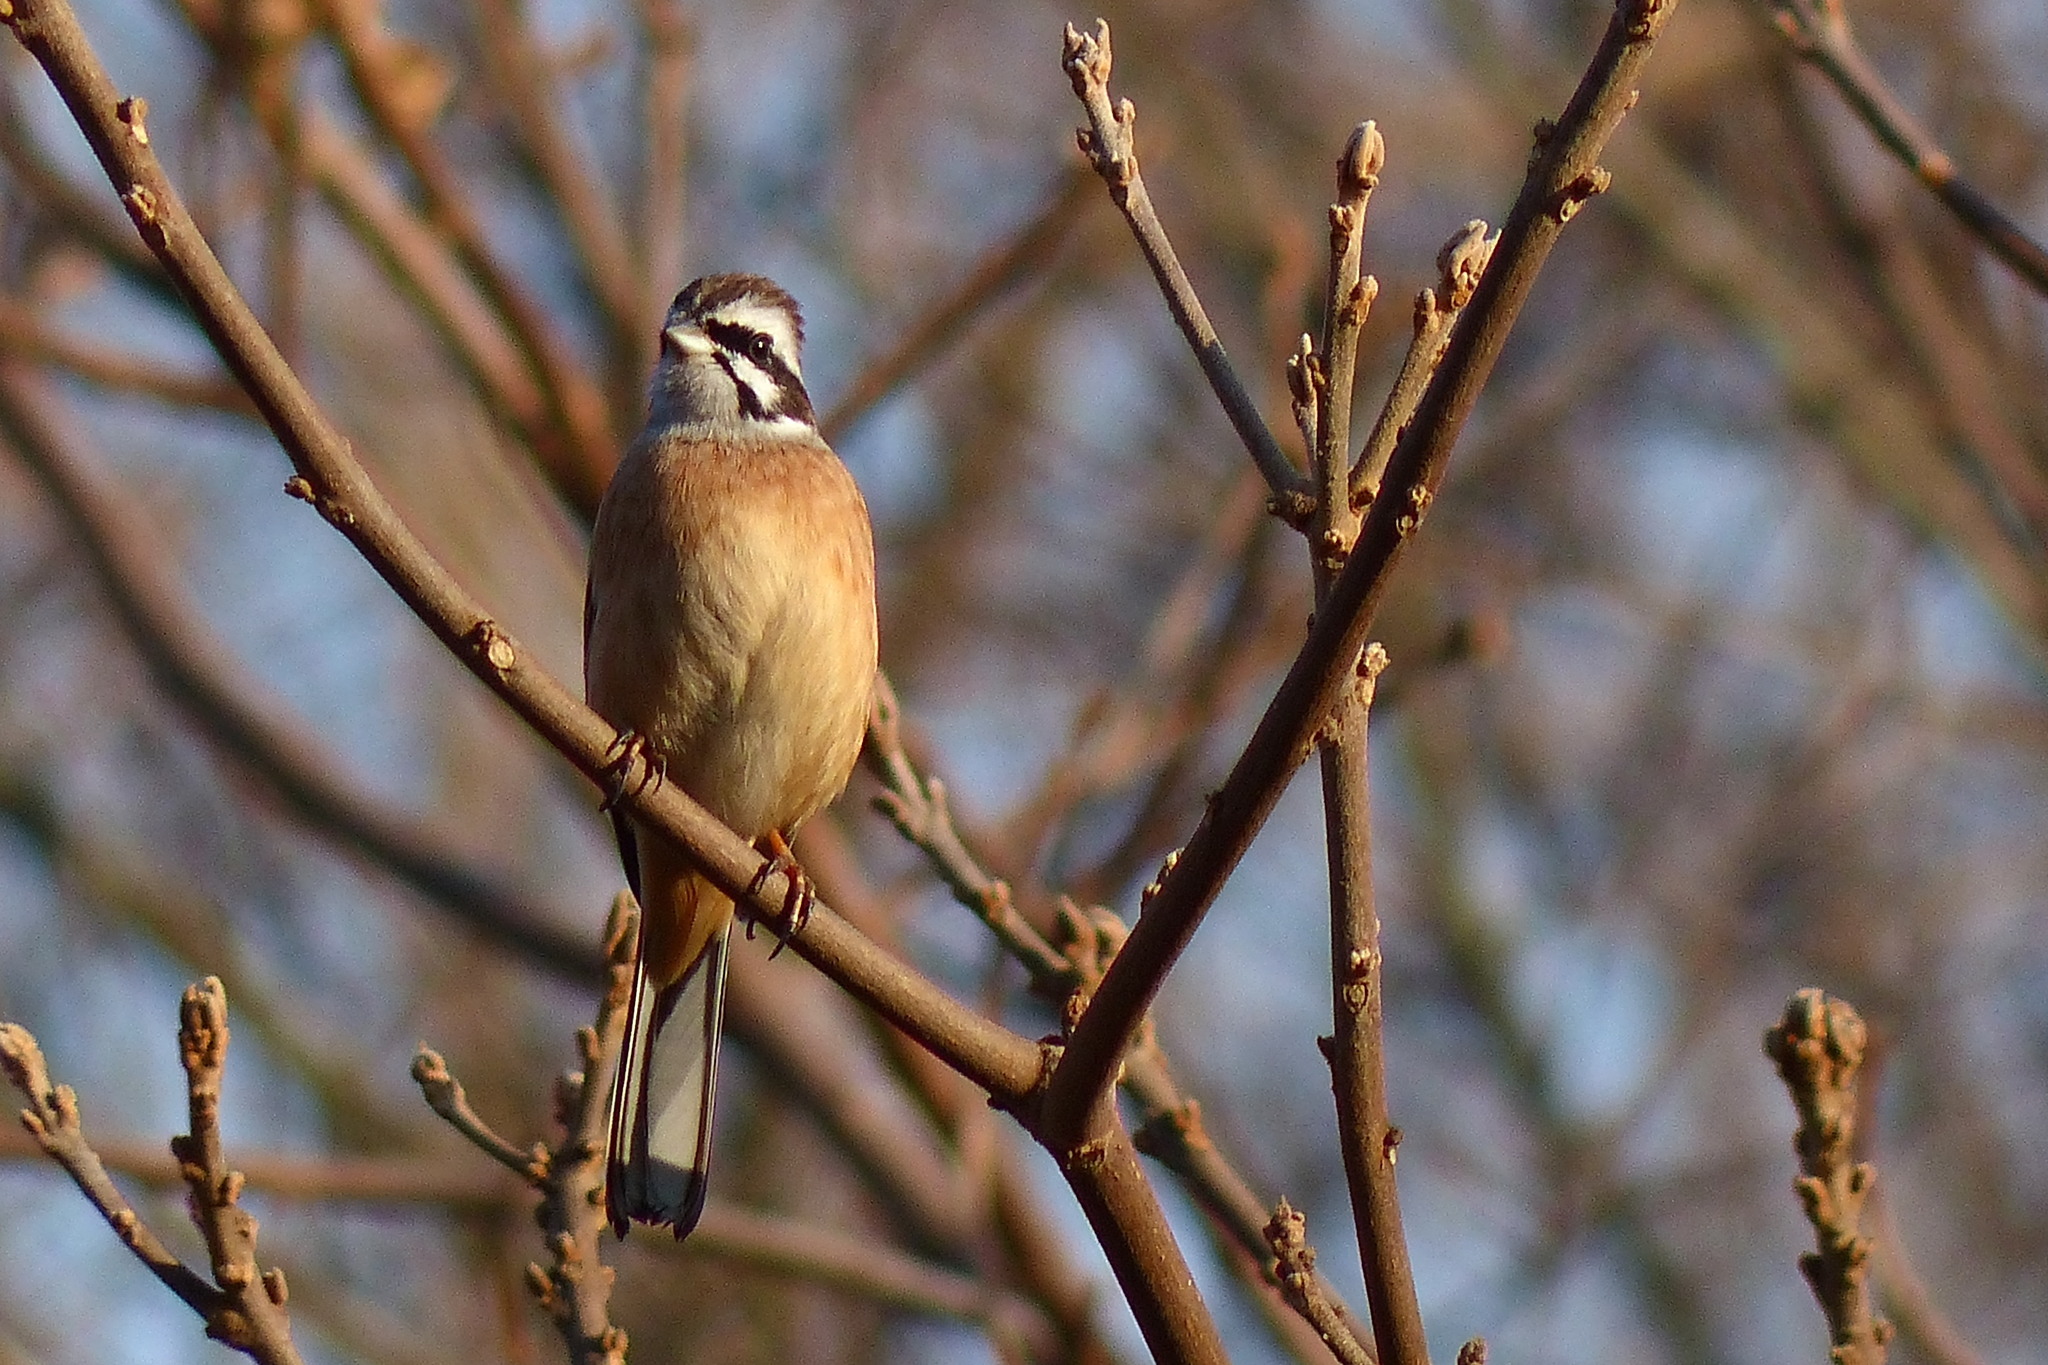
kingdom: Animalia
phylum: Chordata
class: Aves
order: Passeriformes
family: Emberizidae
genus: Emberiza
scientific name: Emberiza cioides
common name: Meadow bunting
